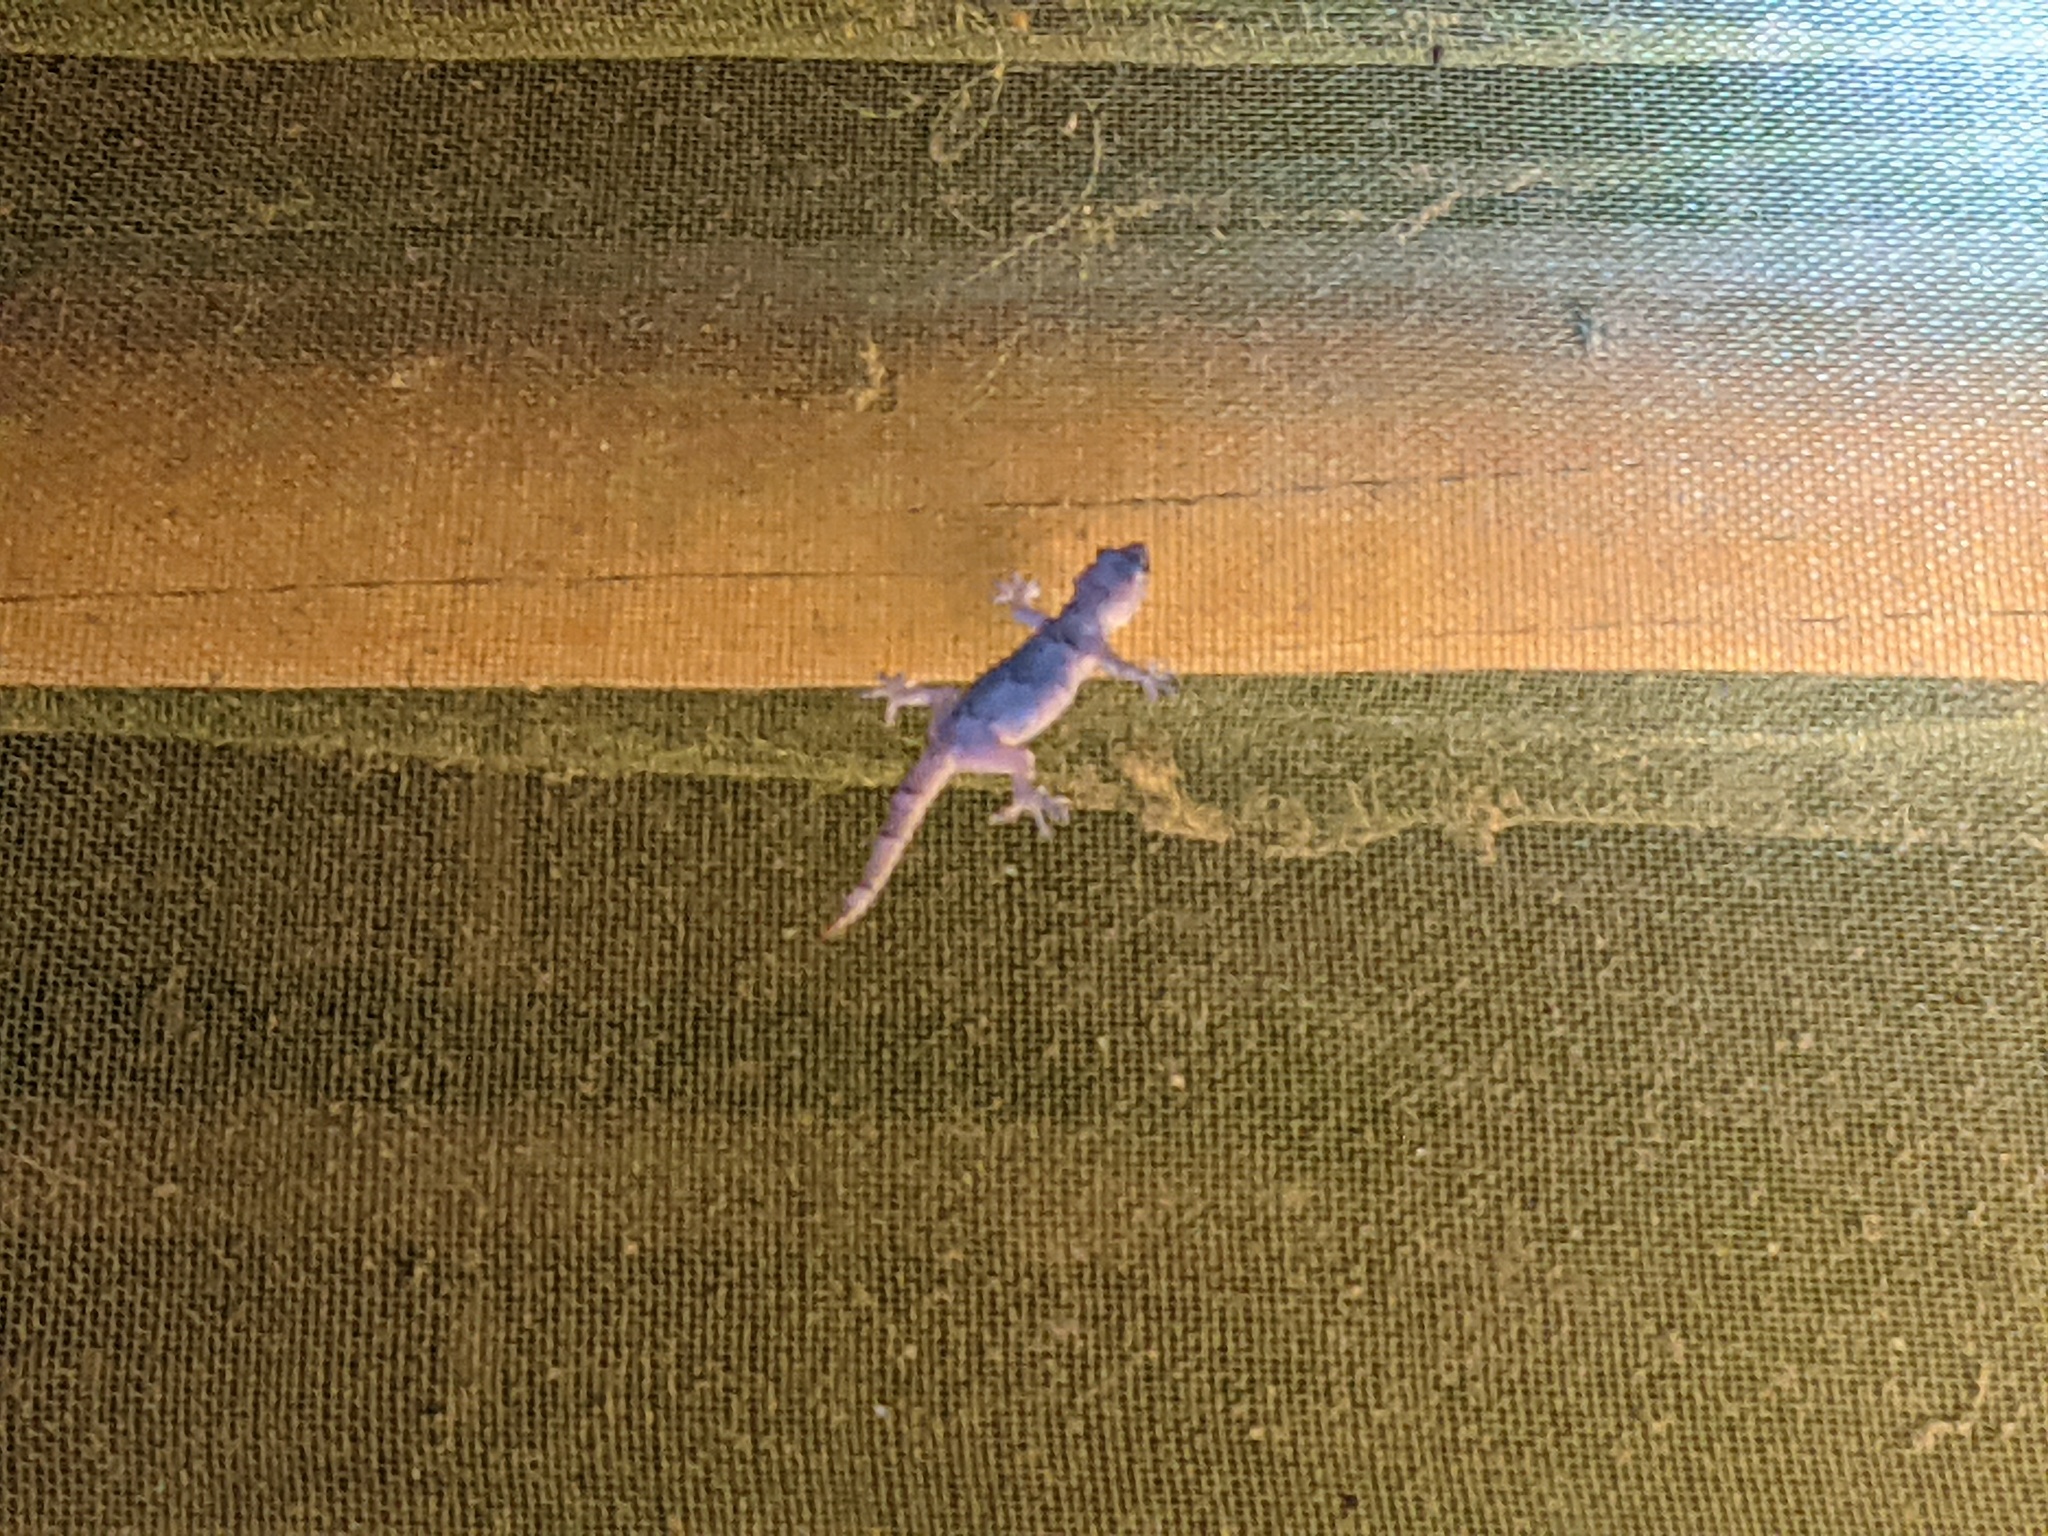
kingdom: Animalia
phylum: Chordata
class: Squamata
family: Gekkonidae
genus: Hemidactylus
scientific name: Hemidactylus mabouia
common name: House gecko
